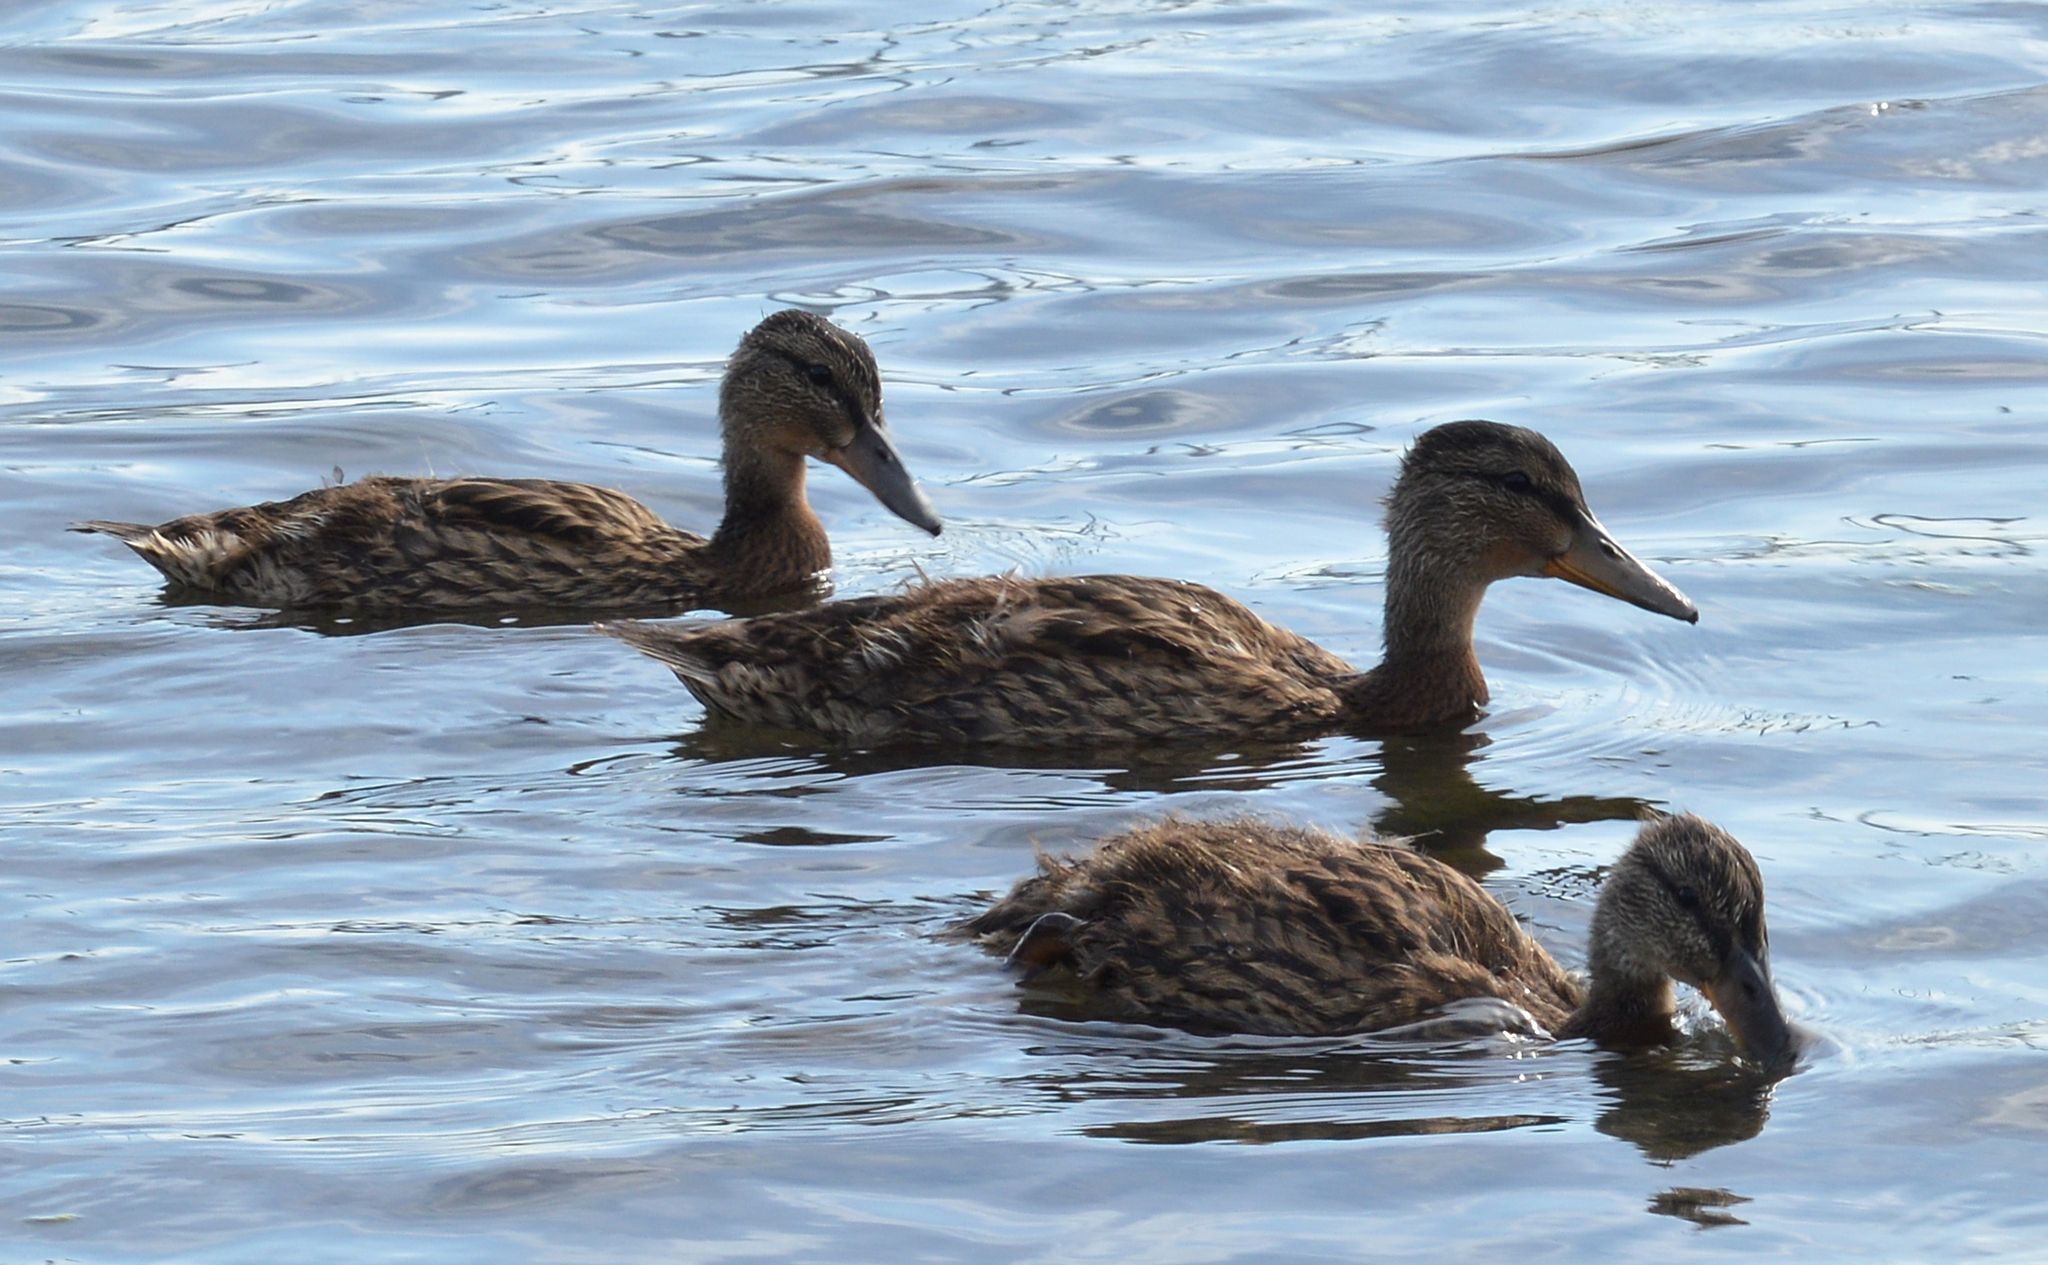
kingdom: Animalia
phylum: Chordata
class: Aves
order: Anseriformes
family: Anatidae
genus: Anas
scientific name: Anas platyrhynchos
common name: Mallard
